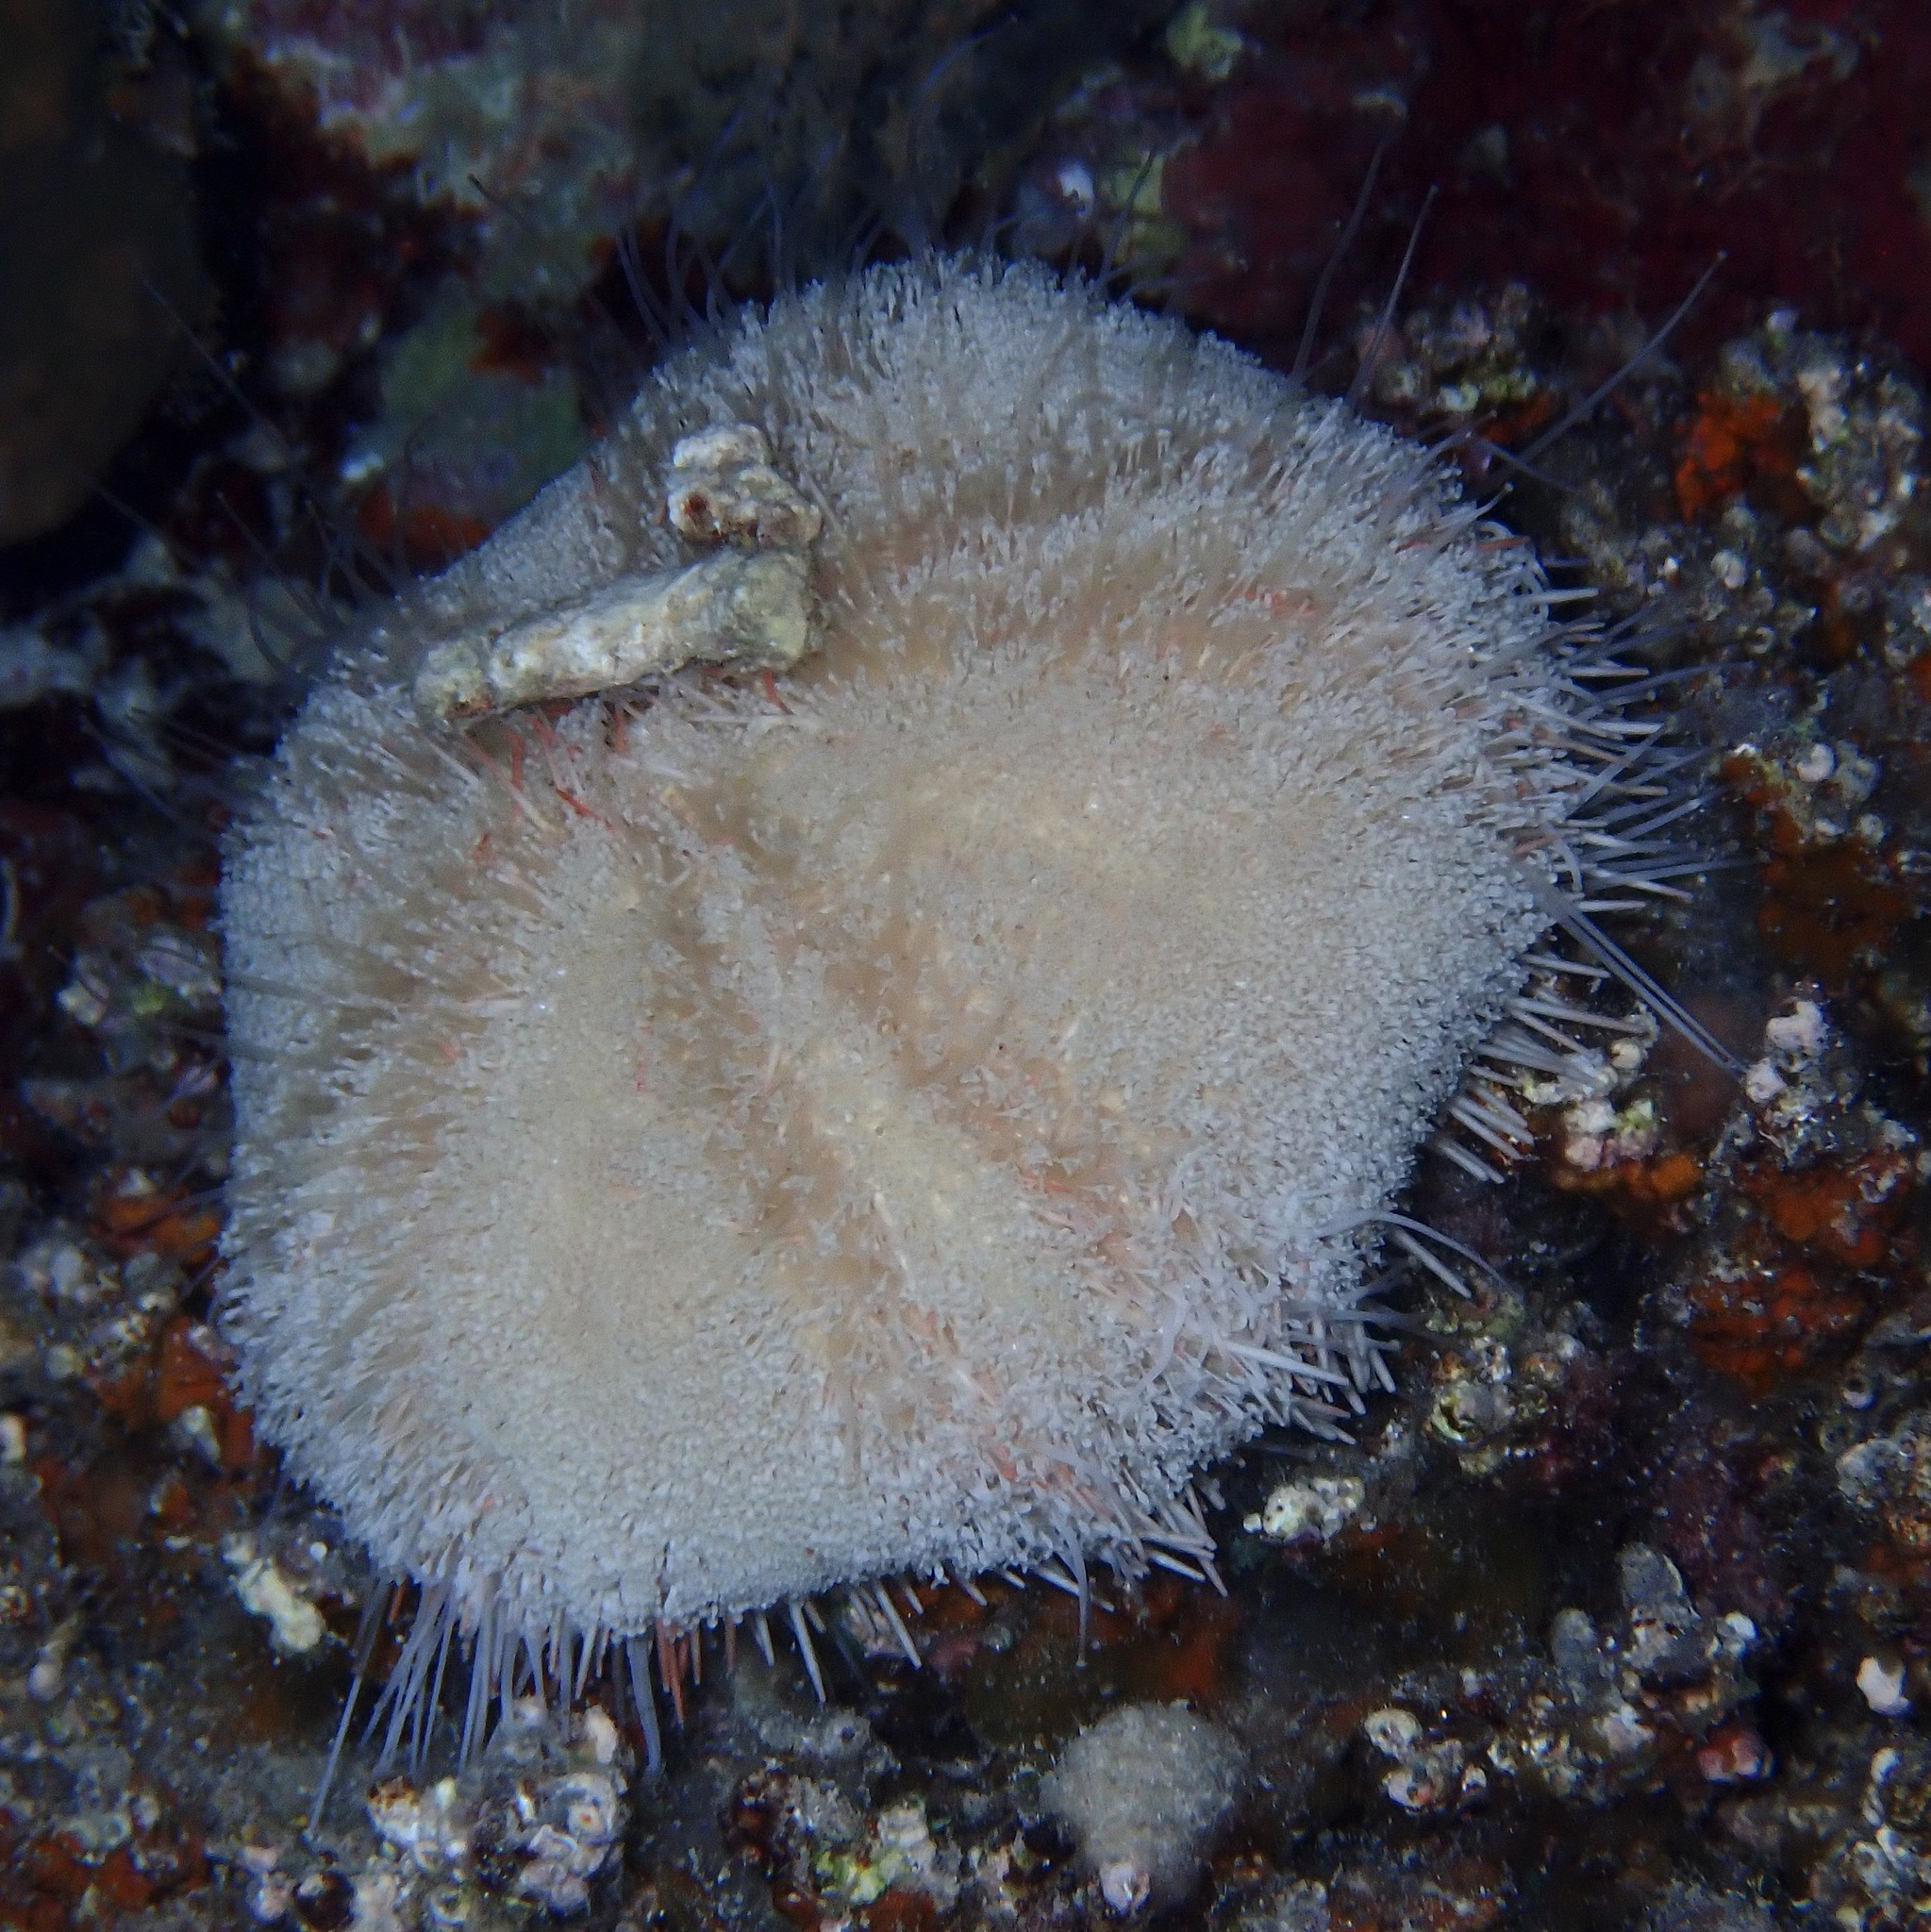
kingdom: Animalia
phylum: Echinodermata
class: Echinoidea
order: Camarodonta
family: Toxopneustidae
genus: Tripneustes
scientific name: Tripneustes gratilla
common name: Bischofsmützenseeigel
